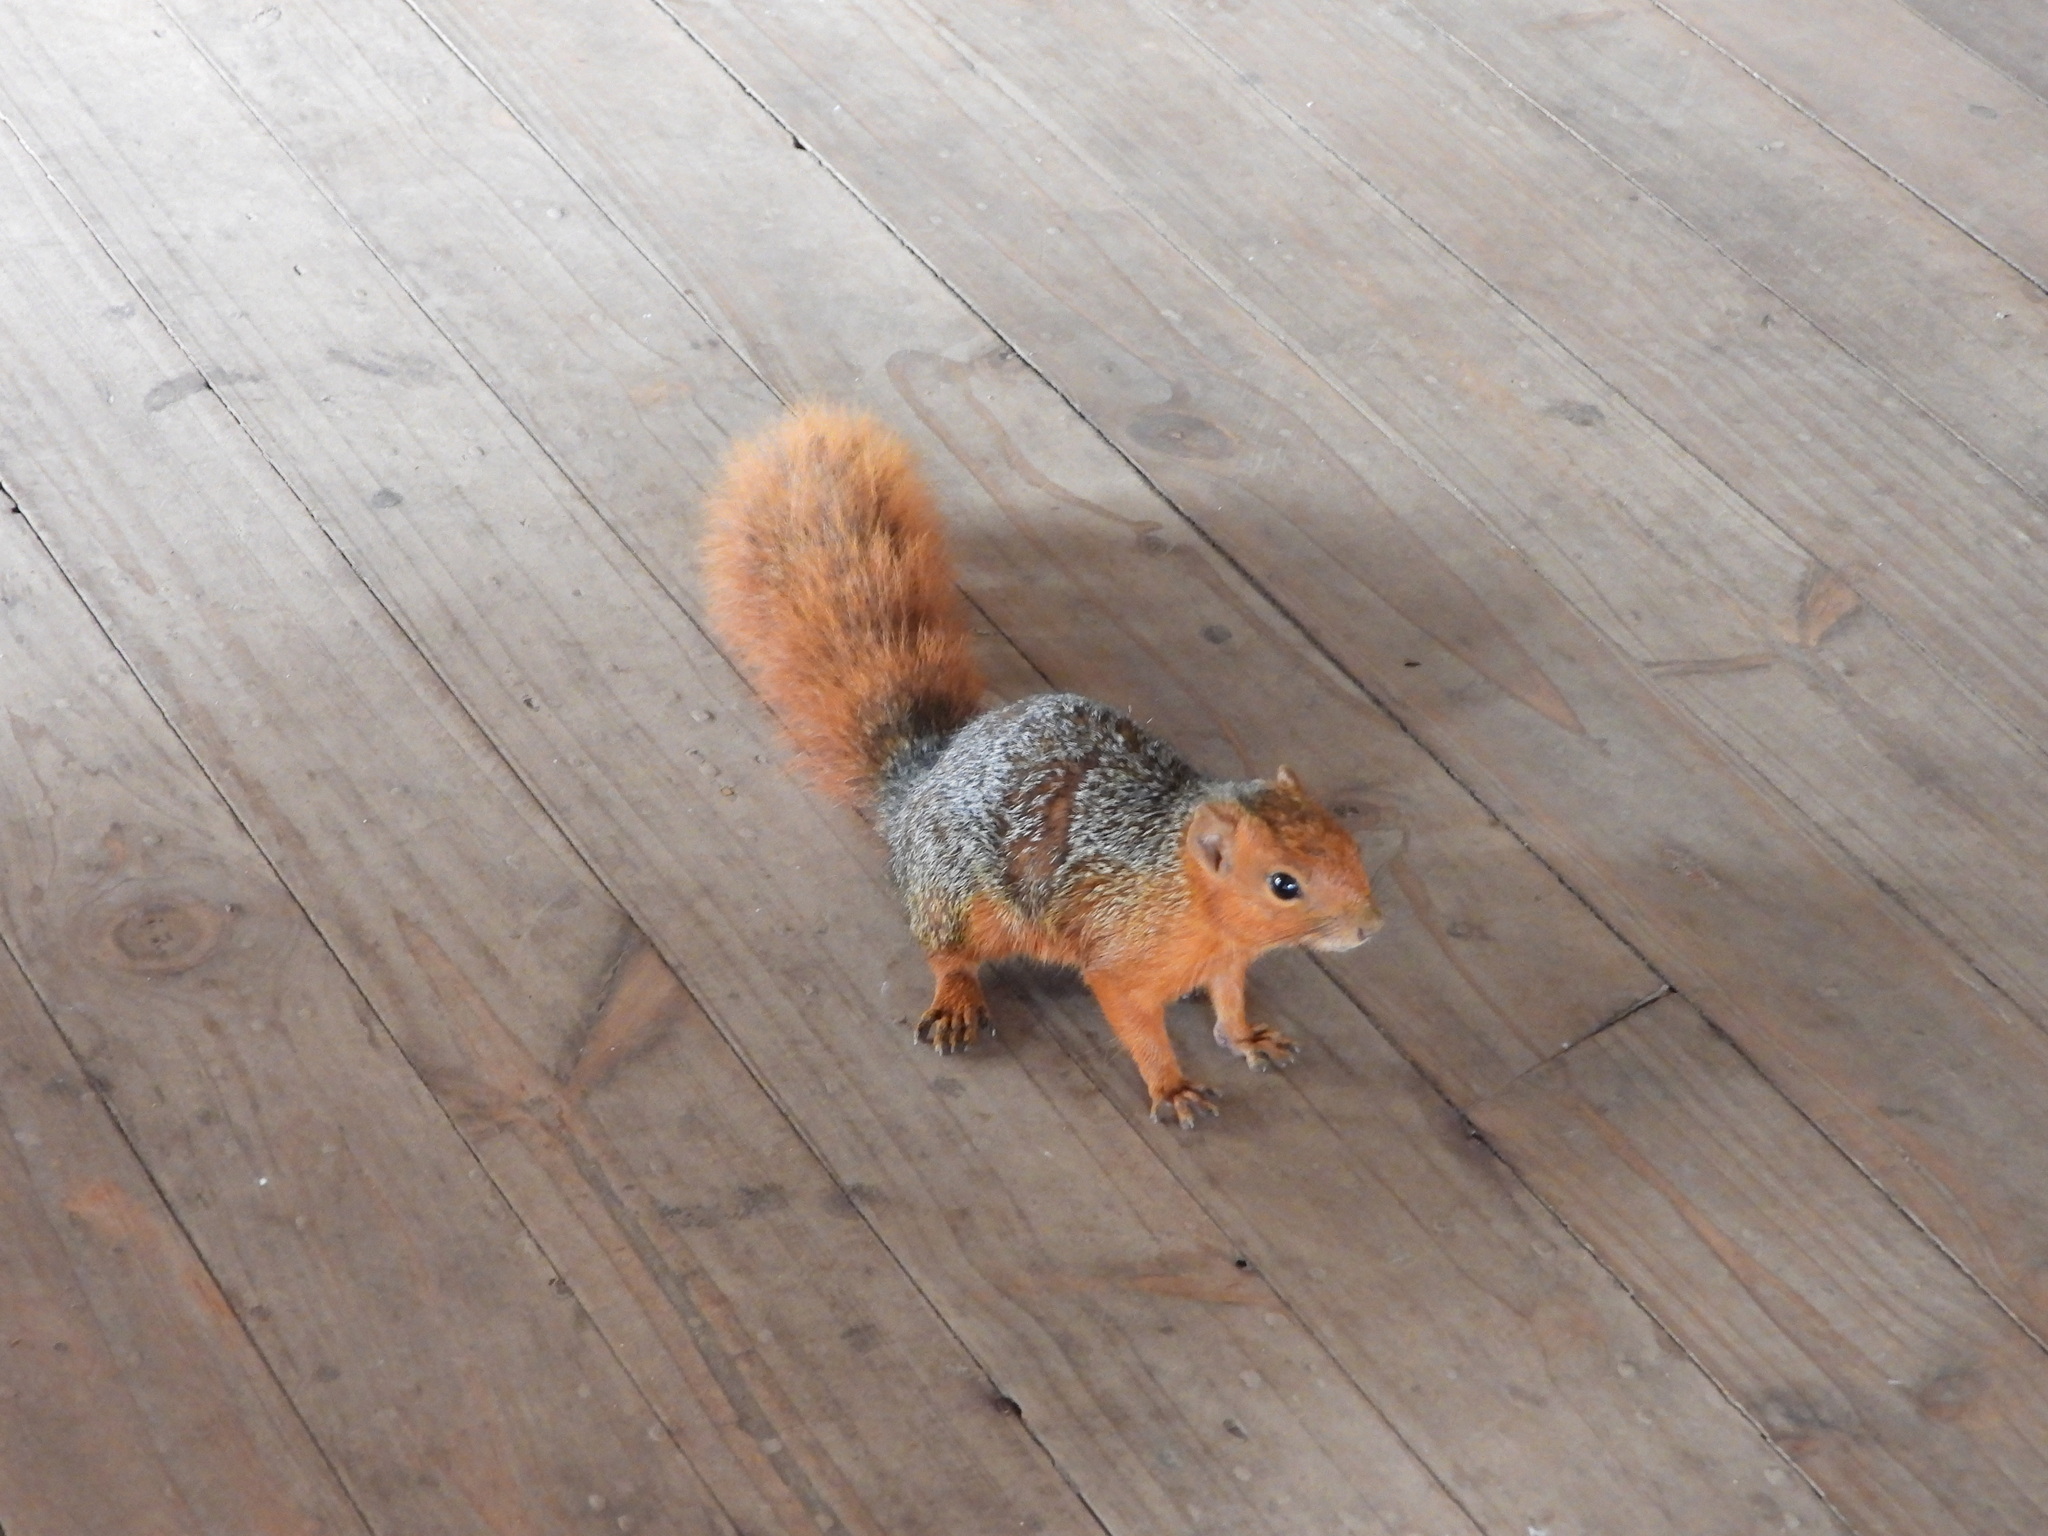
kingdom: Animalia
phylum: Chordata
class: Mammalia
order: Rodentia
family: Sciuridae
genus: Paraxerus
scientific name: Paraxerus palliatus
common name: Red bush squirrel
